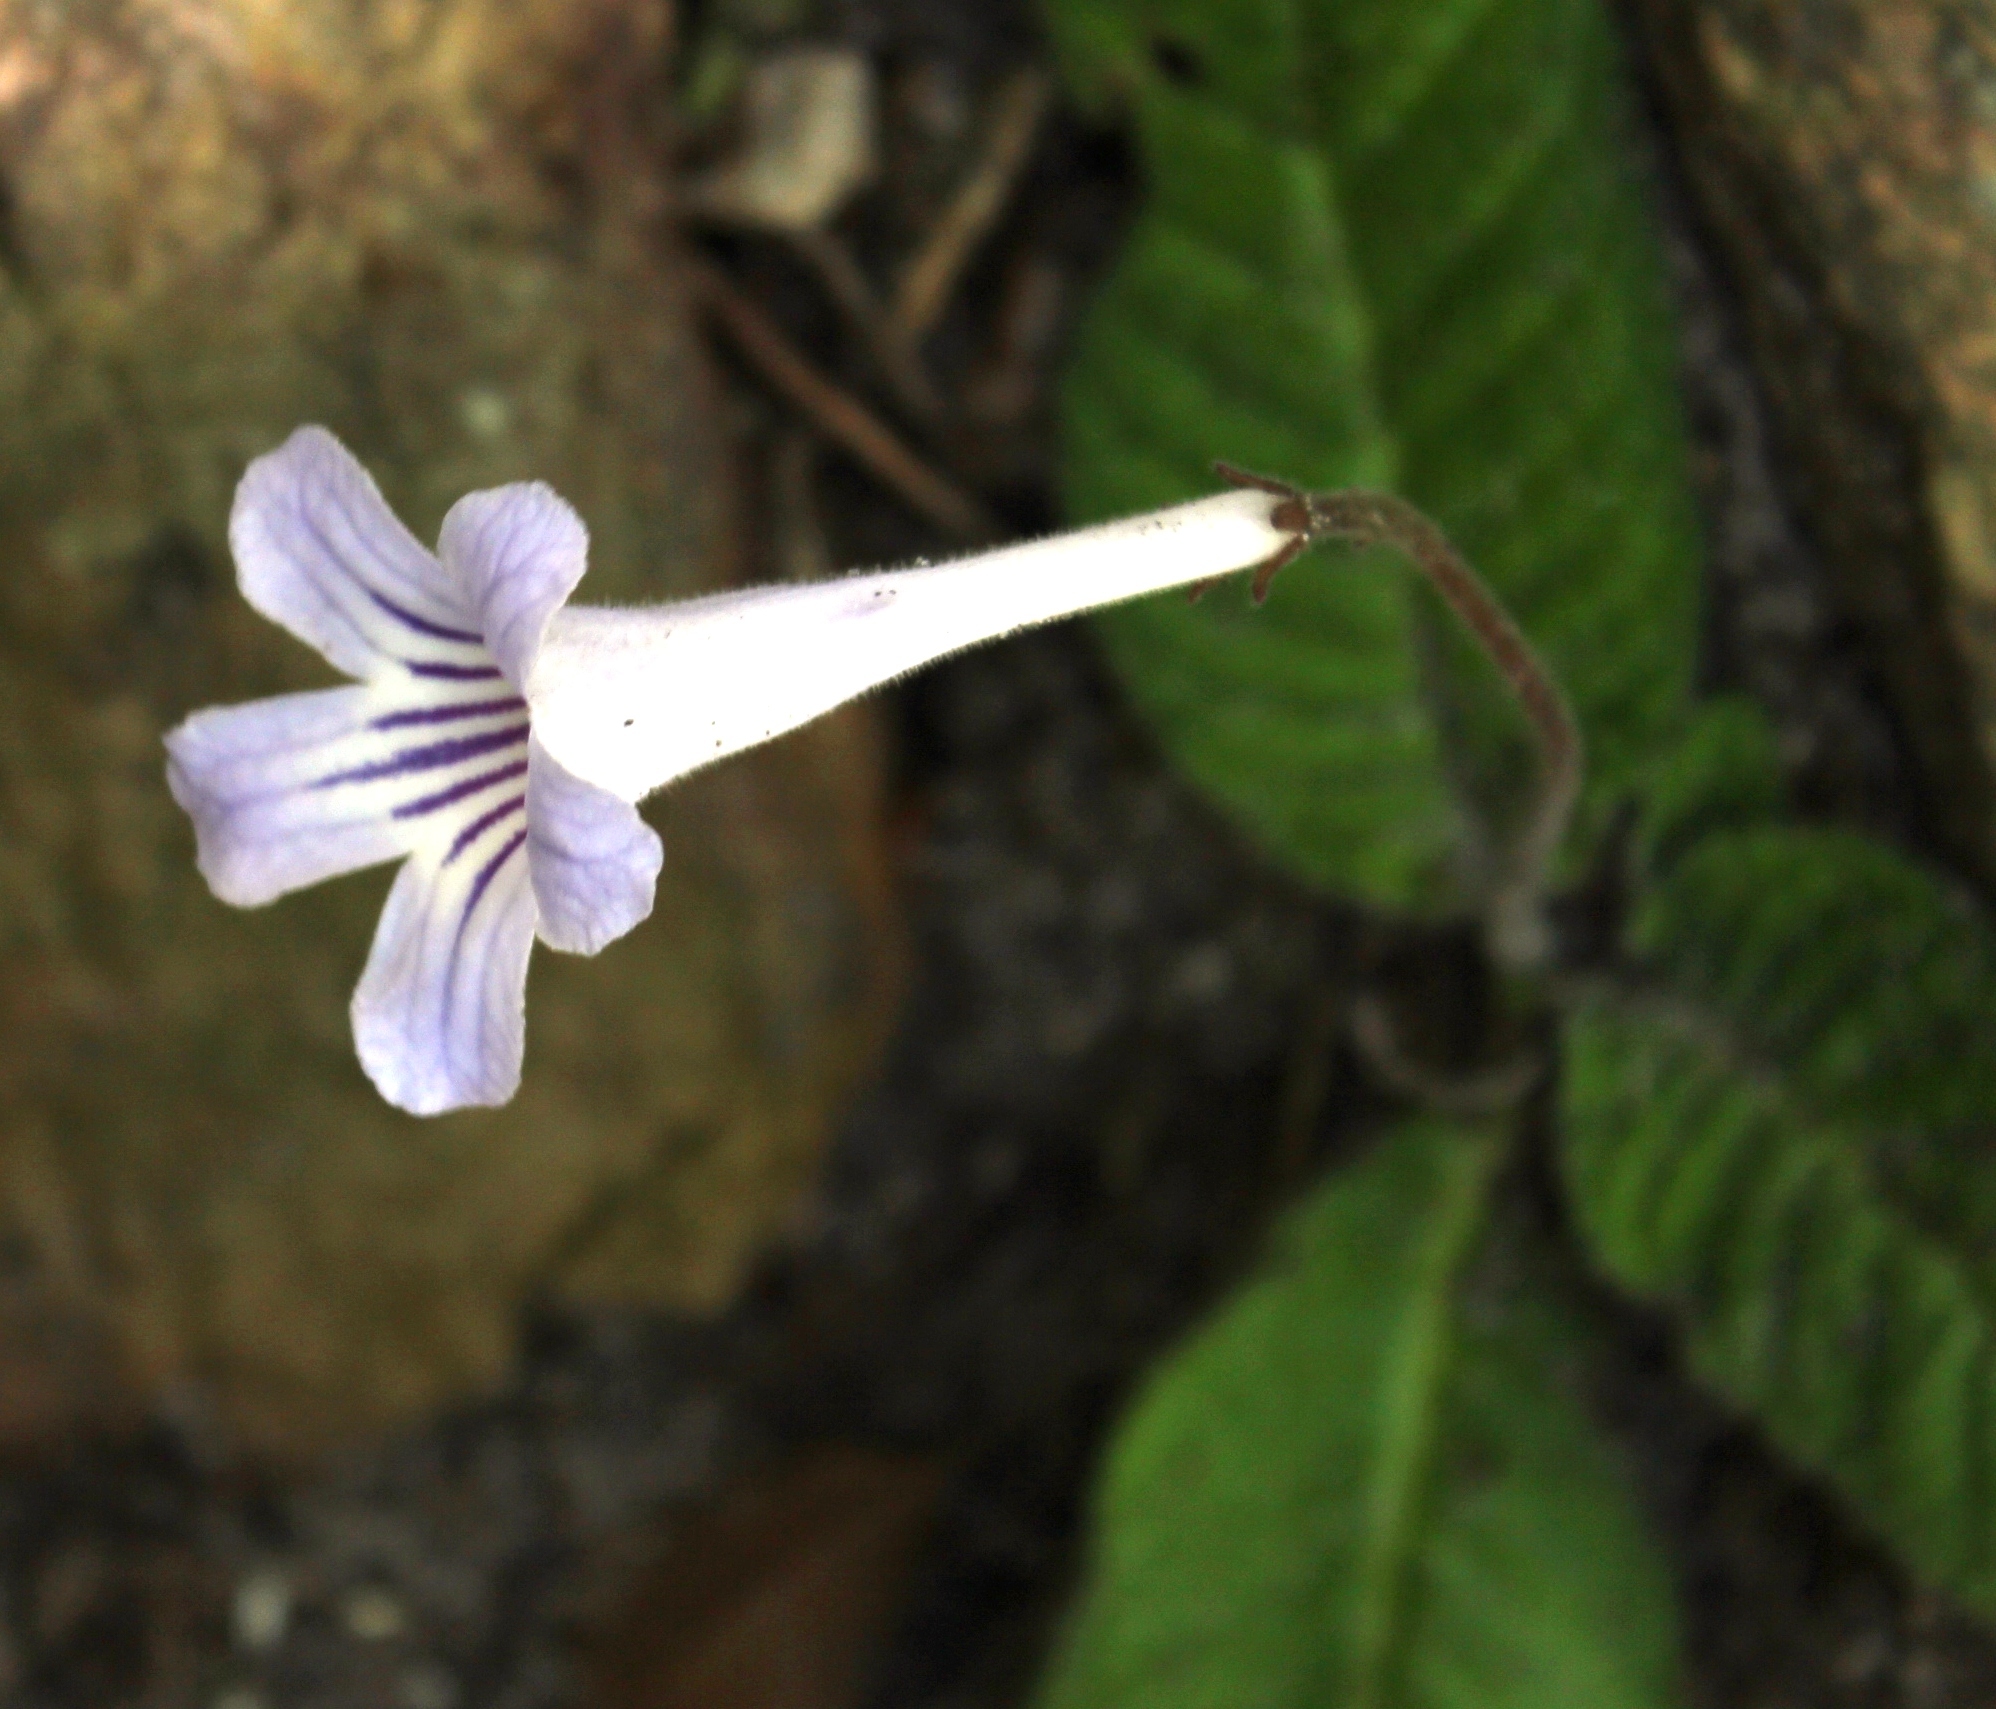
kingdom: Plantae
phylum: Tracheophyta
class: Magnoliopsida
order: Lamiales
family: Gesneriaceae
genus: Streptocarpus
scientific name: Streptocarpus rexii
